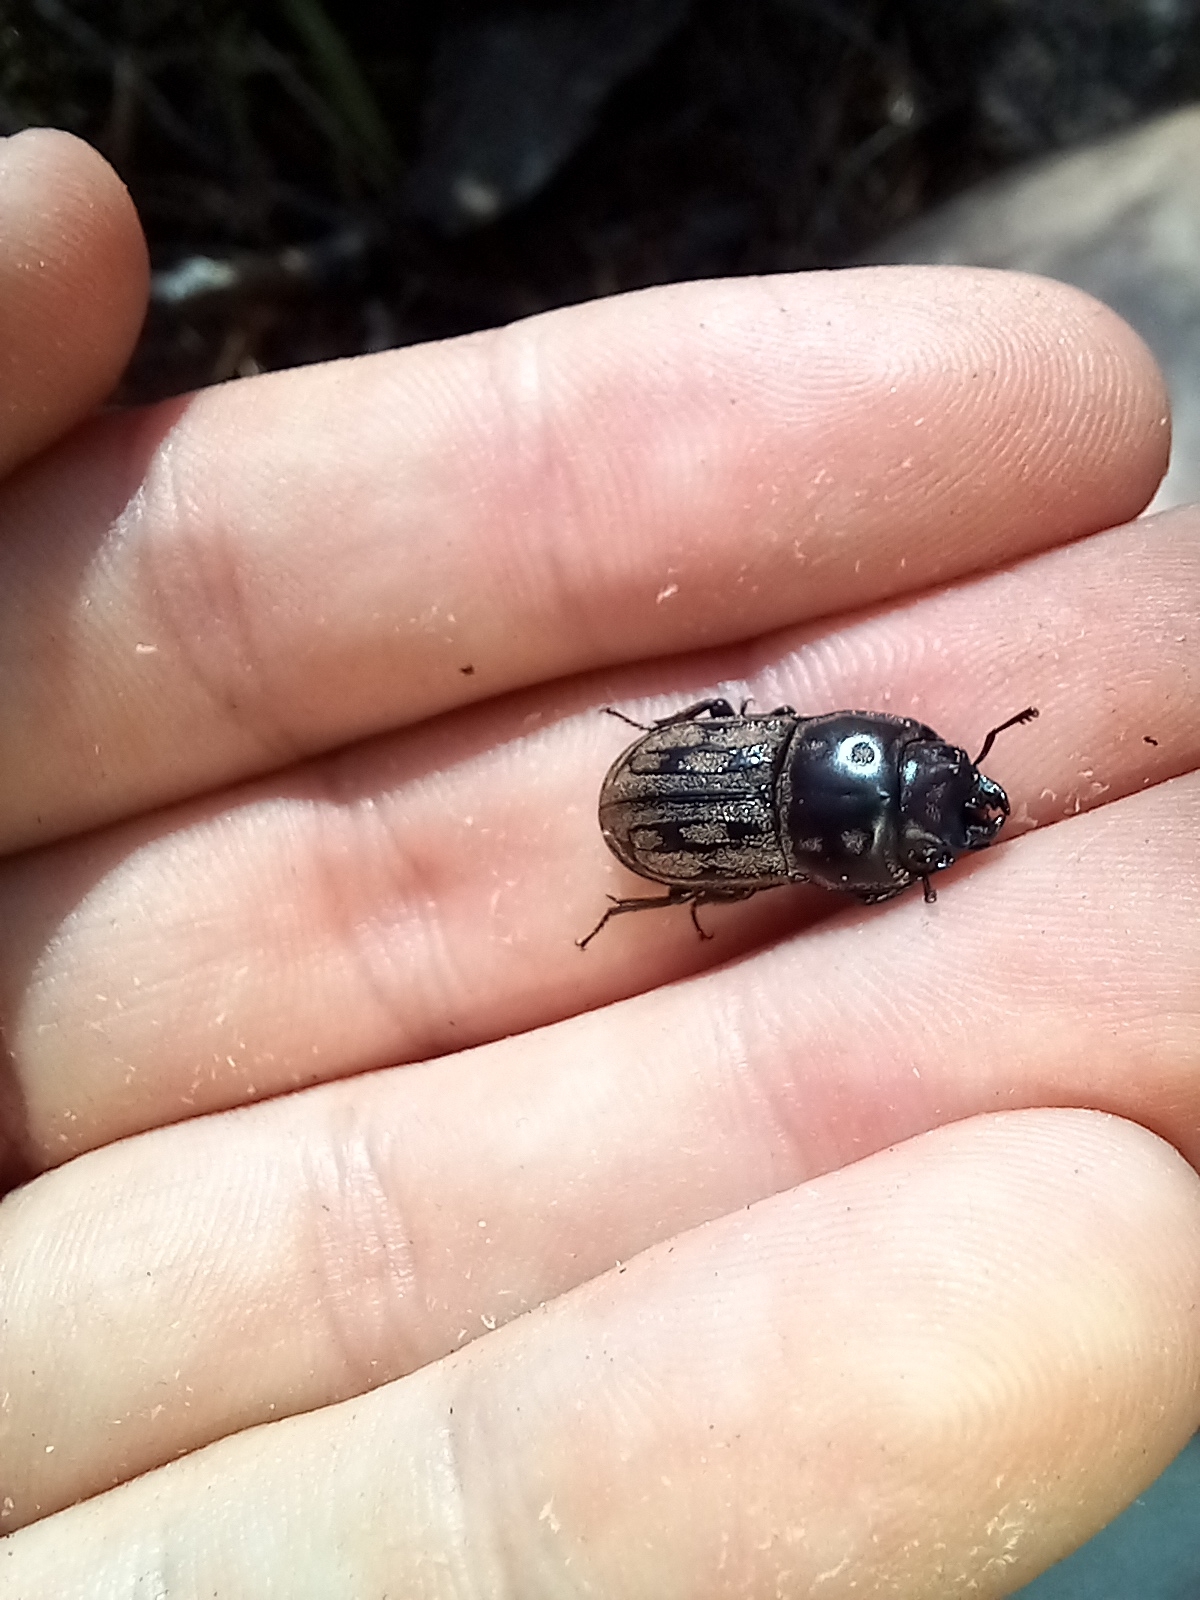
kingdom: Animalia
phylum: Arthropoda
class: Insecta
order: Coleoptera
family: Lucanidae
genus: Paralissotes
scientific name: Paralissotes reticulatus
